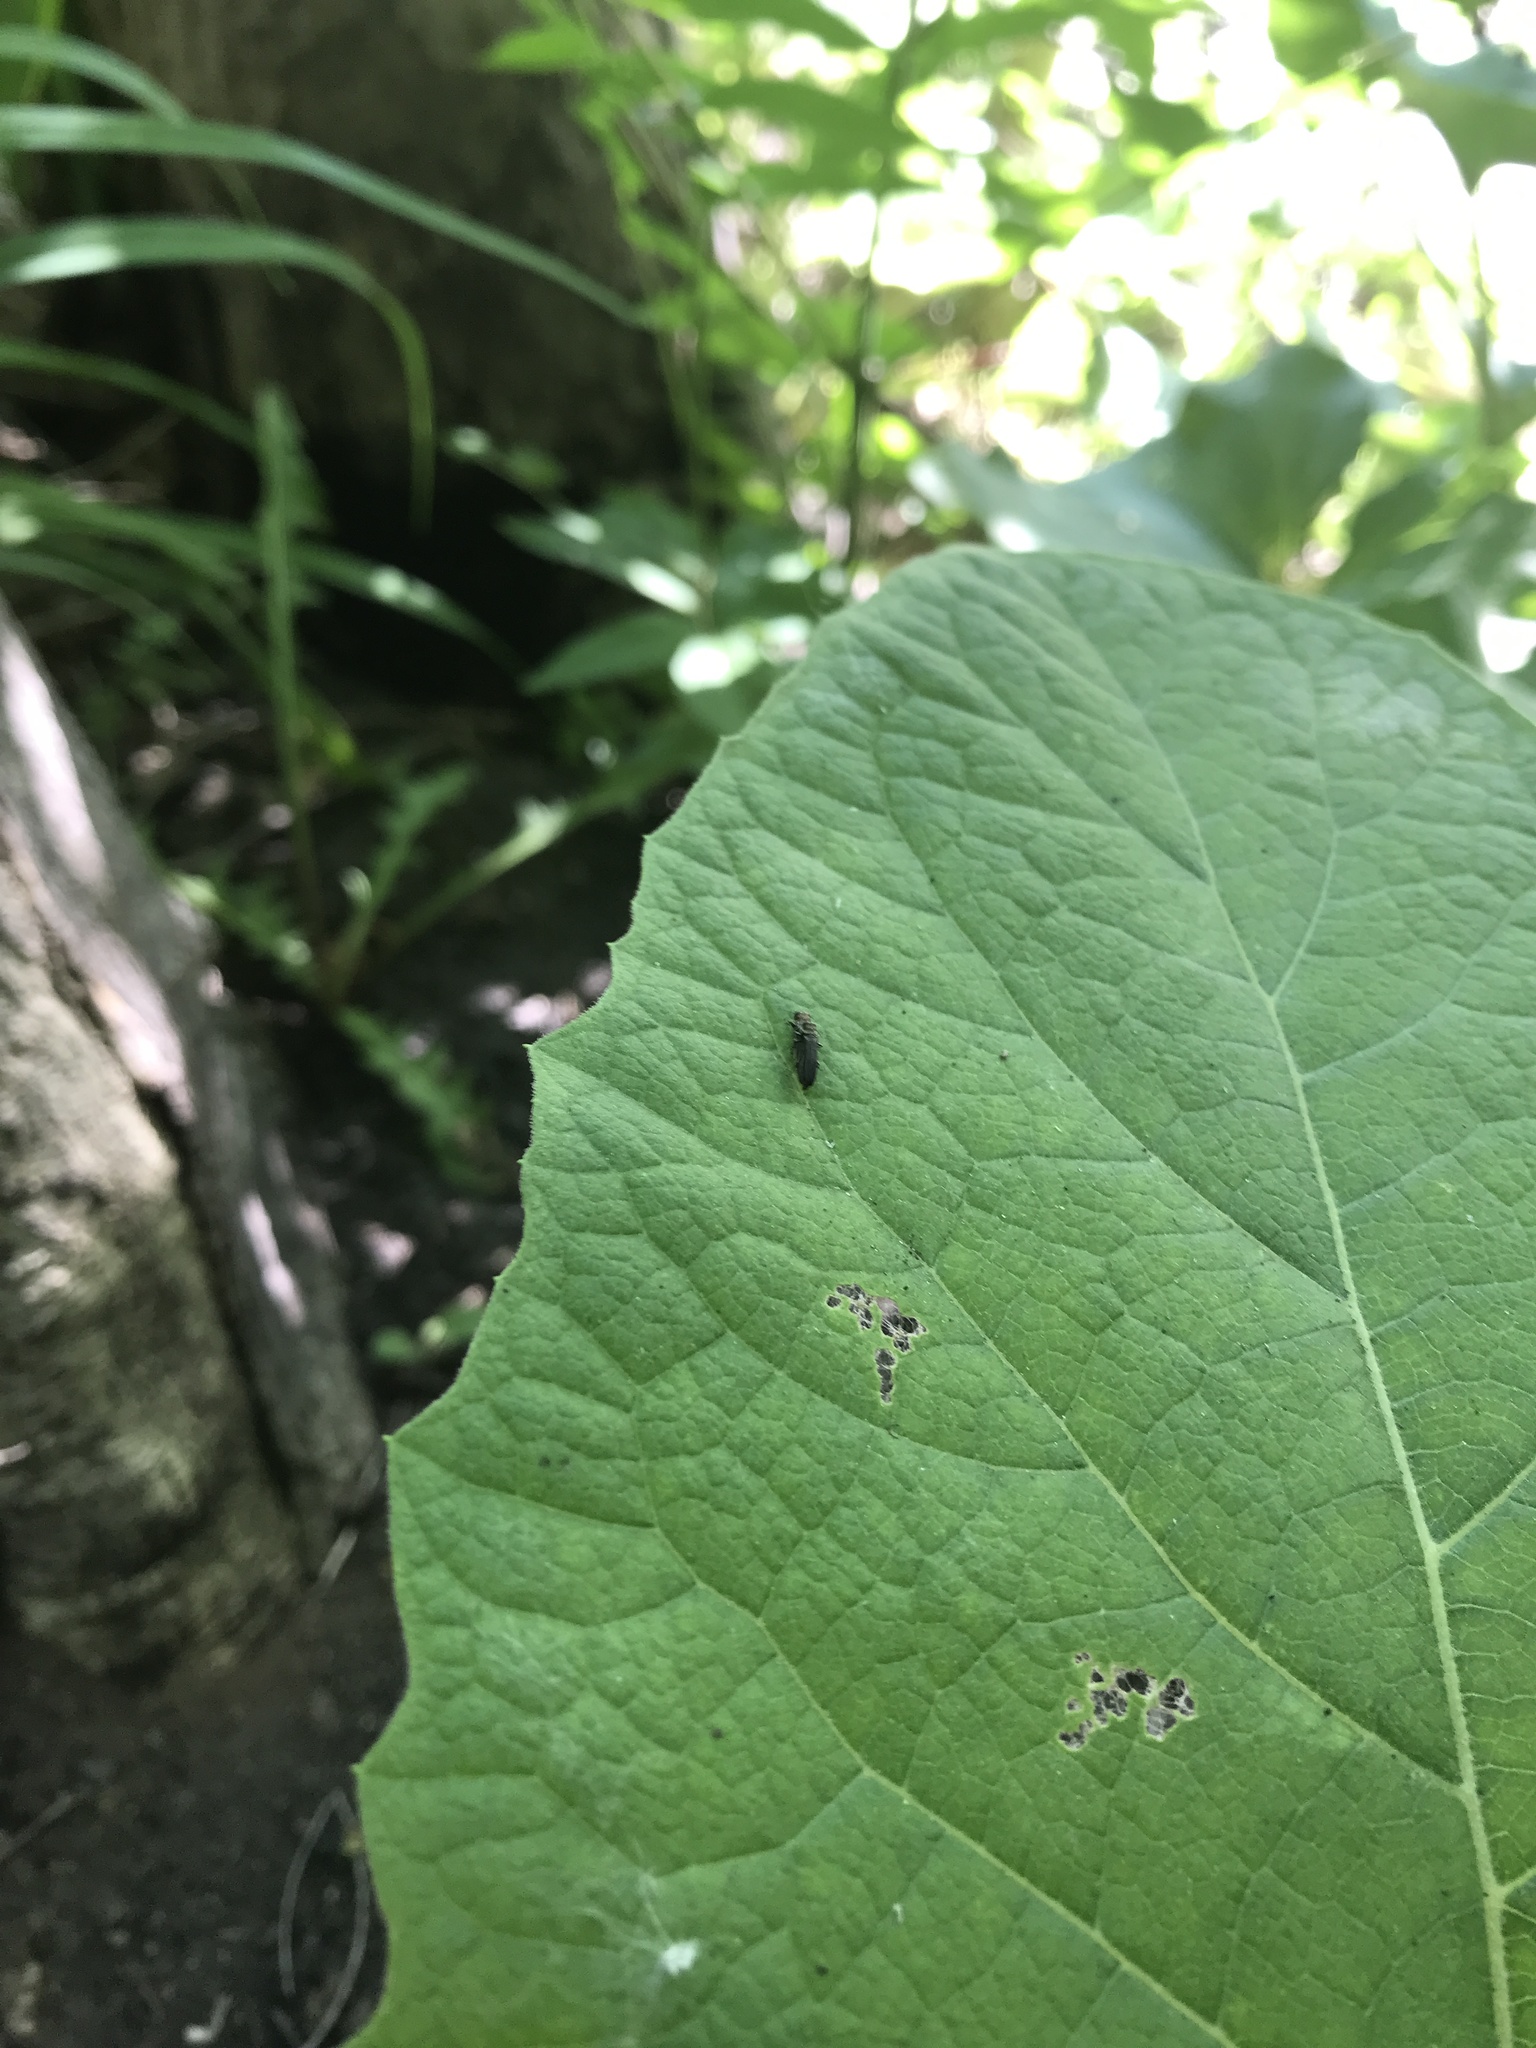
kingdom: Animalia
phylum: Arthropoda
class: Insecta
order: Coleoptera
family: Buprestidae
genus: Agrilus
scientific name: Agrilus ruficollis
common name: Red-necked cane borer beetle
